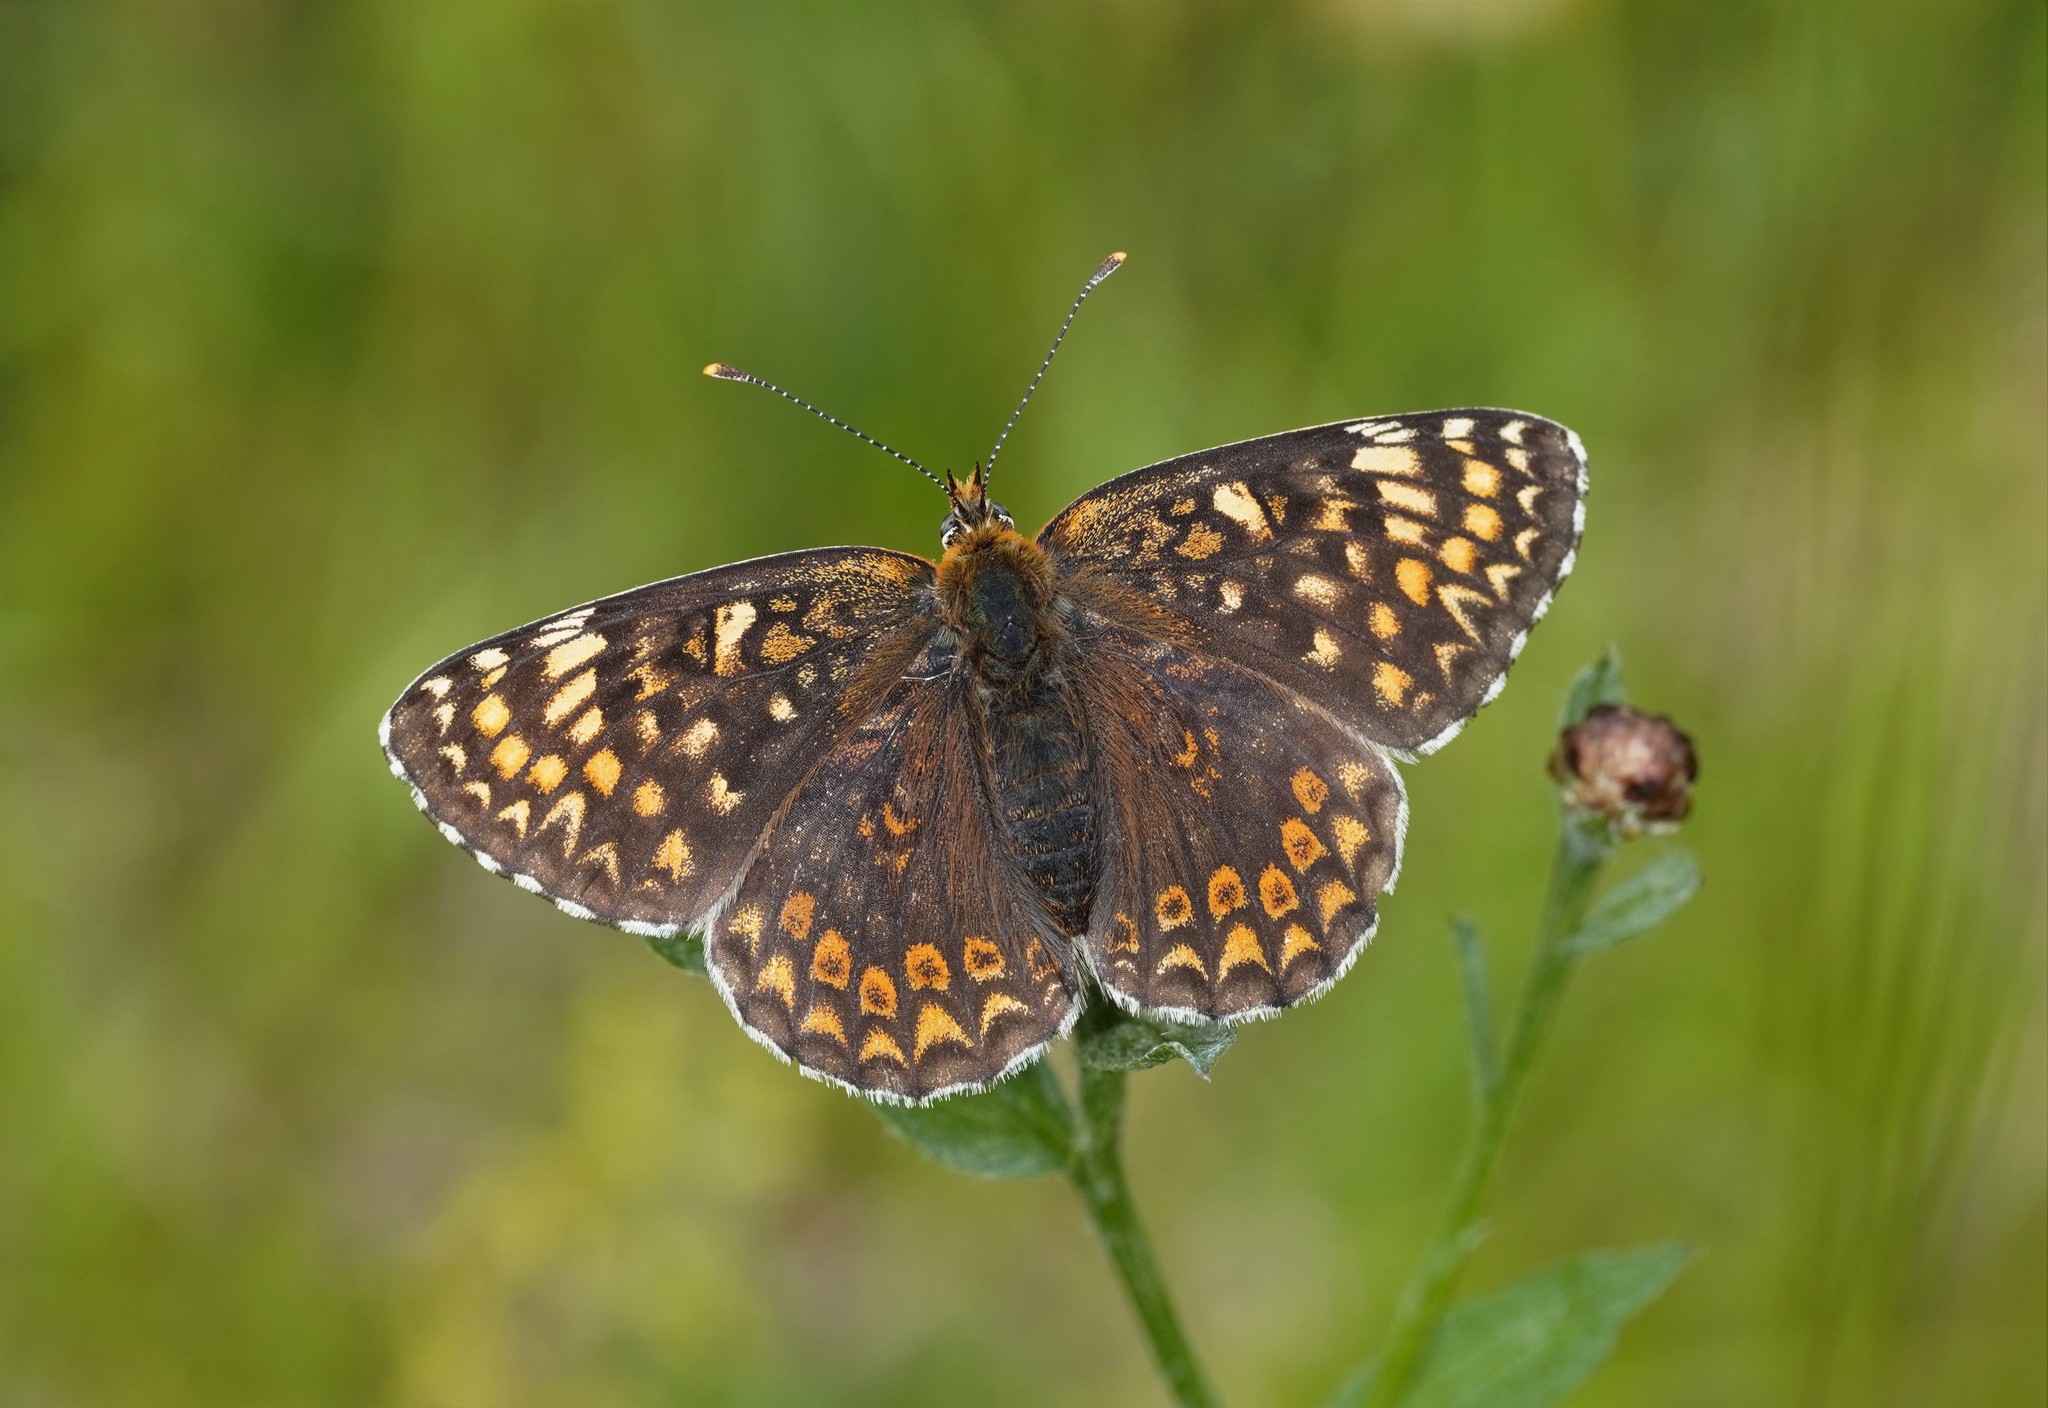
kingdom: Animalia
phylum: Arthropoda
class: Insecta
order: Lepidoptera
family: Nymphalidae
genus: Melitaea
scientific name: Melitaea phoebe
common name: Knapweed fritillary
